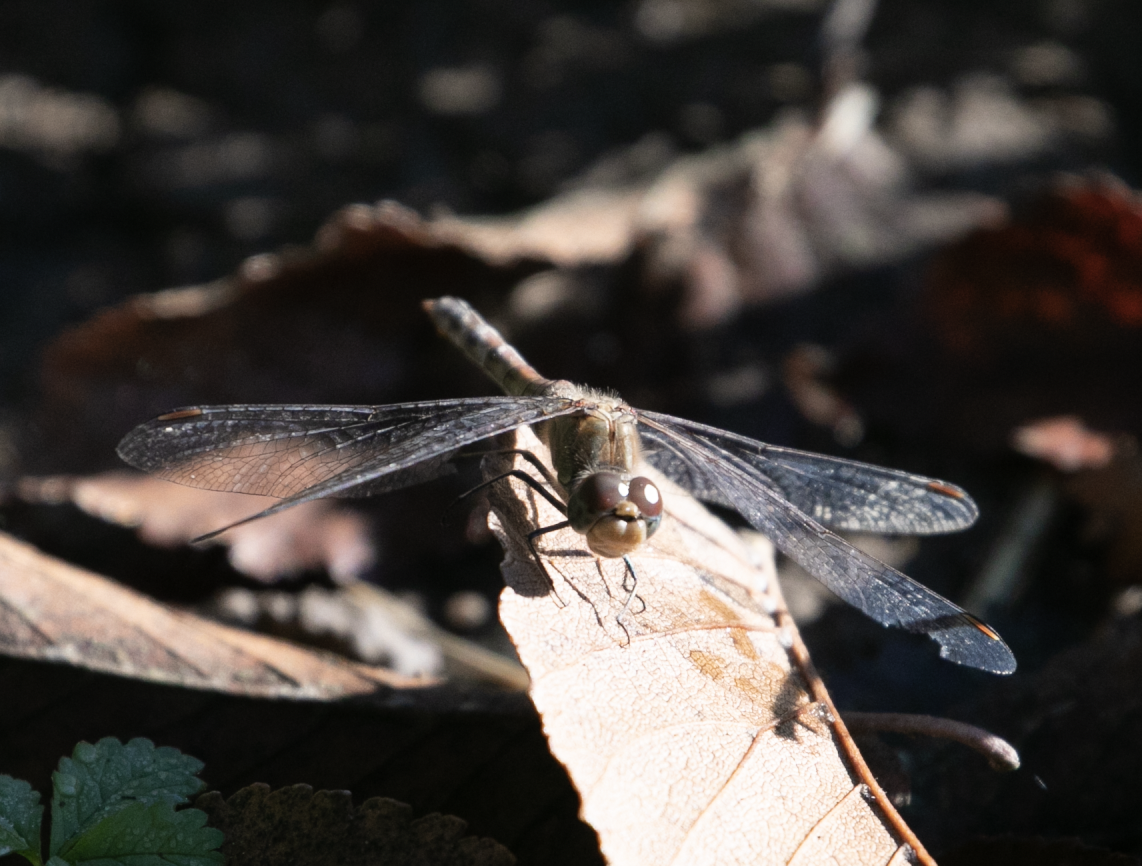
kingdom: Animalia
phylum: Arthropoda
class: Insecta
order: Odonata
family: Libellulidae
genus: Sympetrum
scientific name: Sympetrum striolatum
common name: Common darter
